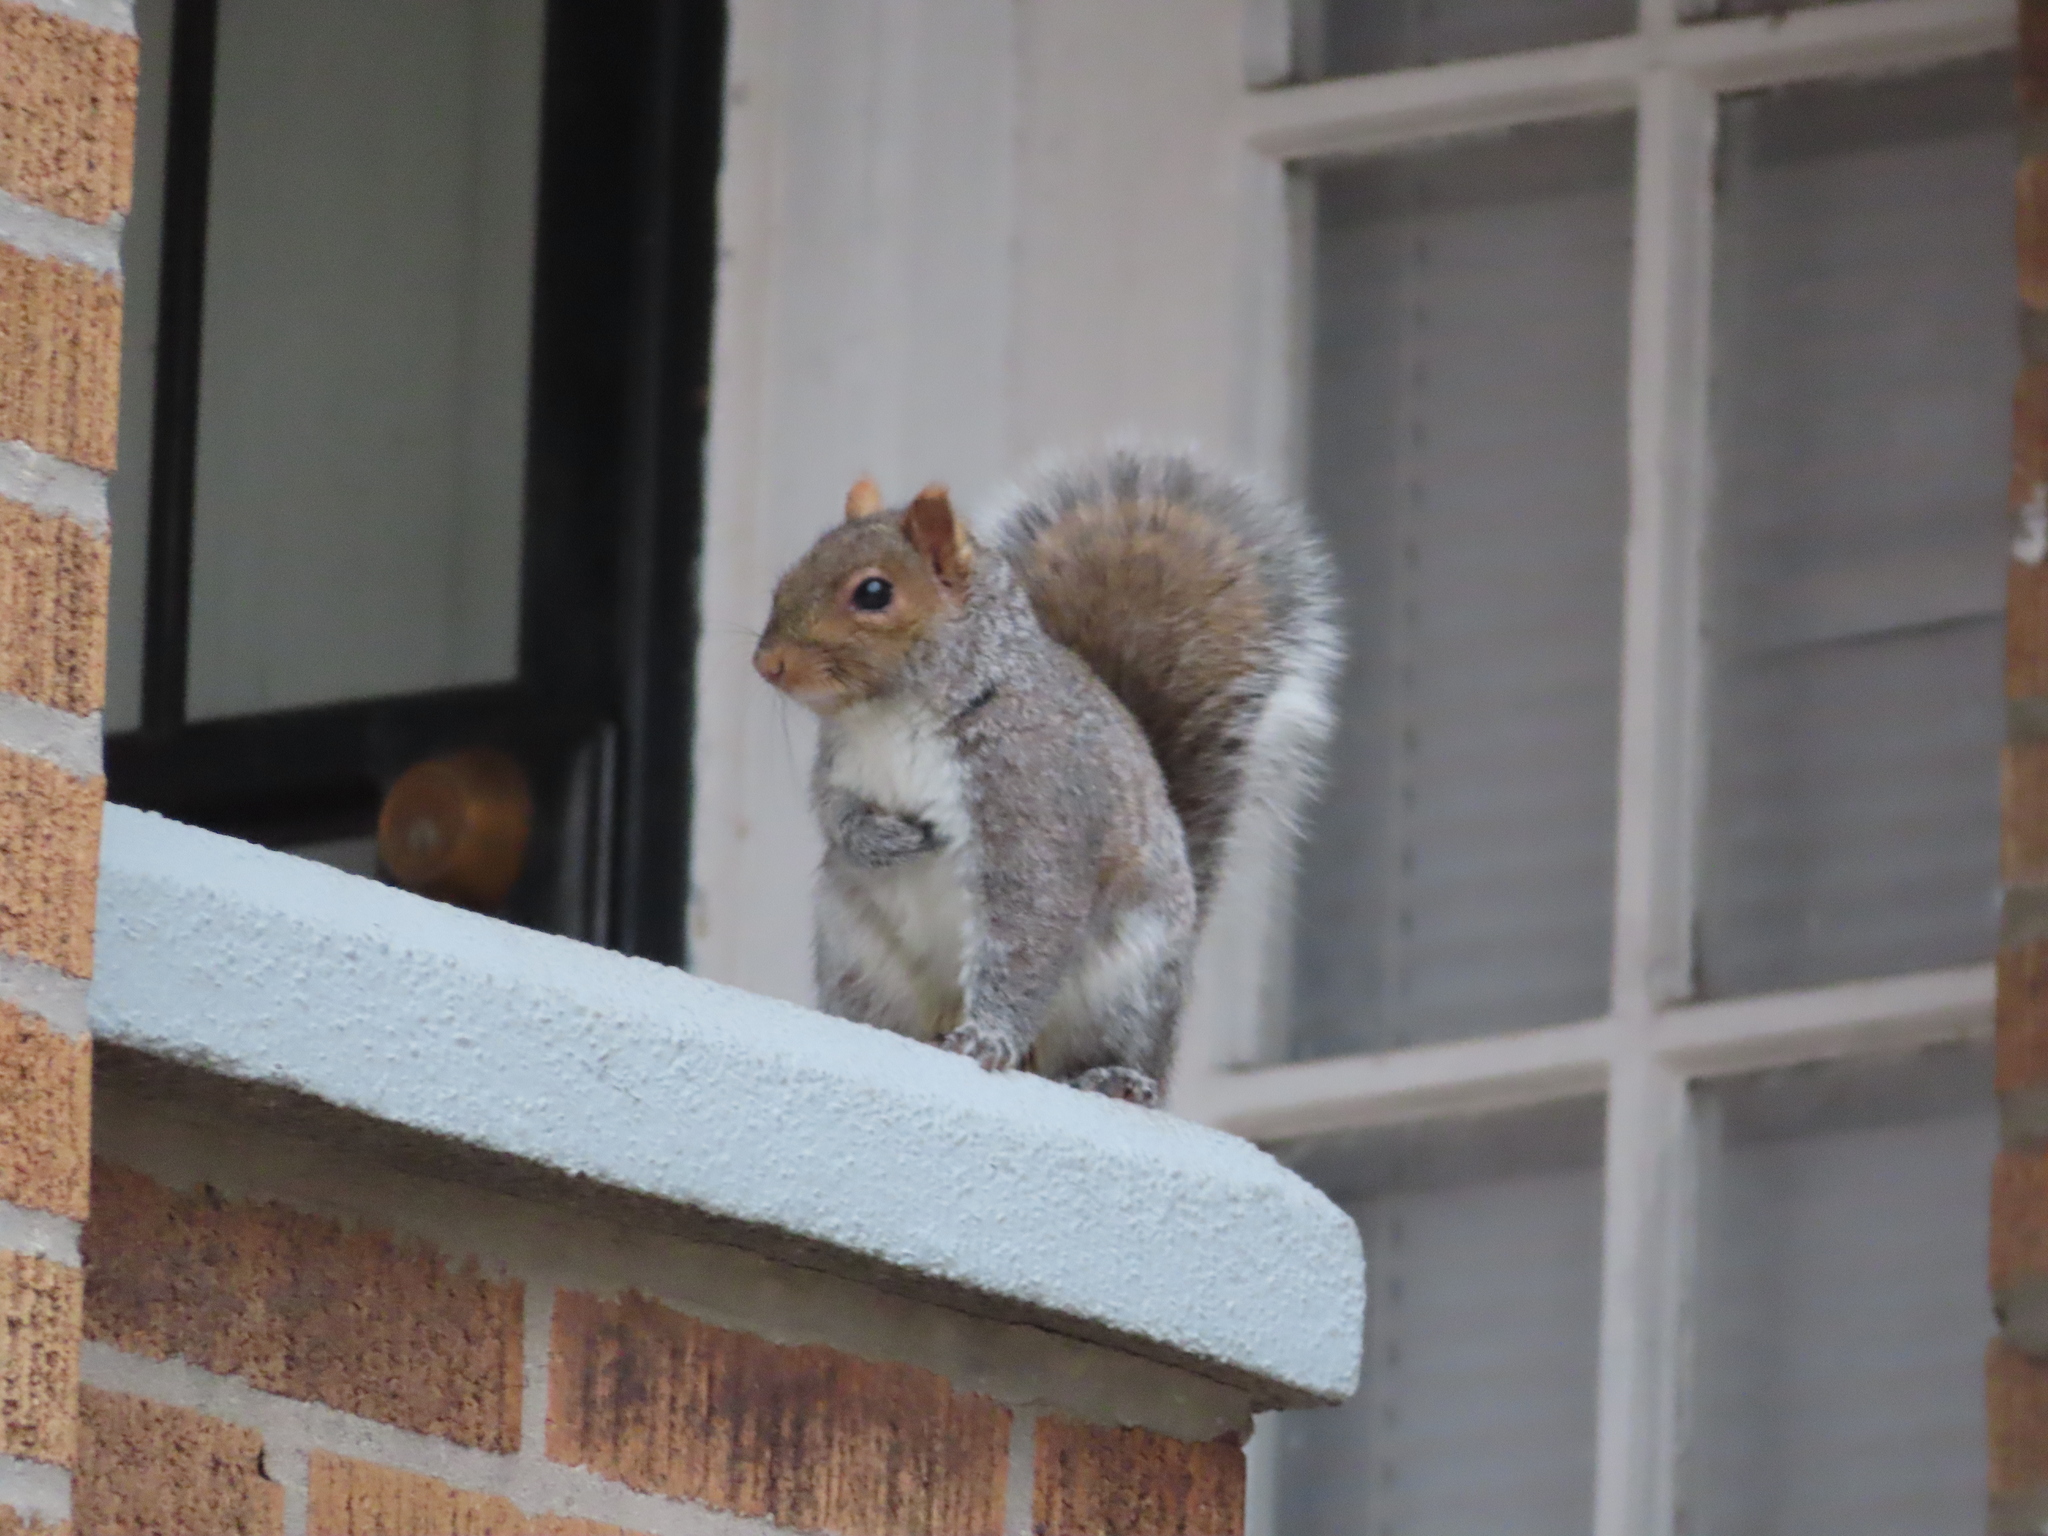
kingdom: Animalia
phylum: Chordata
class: Mammalia
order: Rodentia
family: Sciuridae
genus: Sciurus
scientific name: Sciurus carolinensis
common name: Eastern gray squirrel
